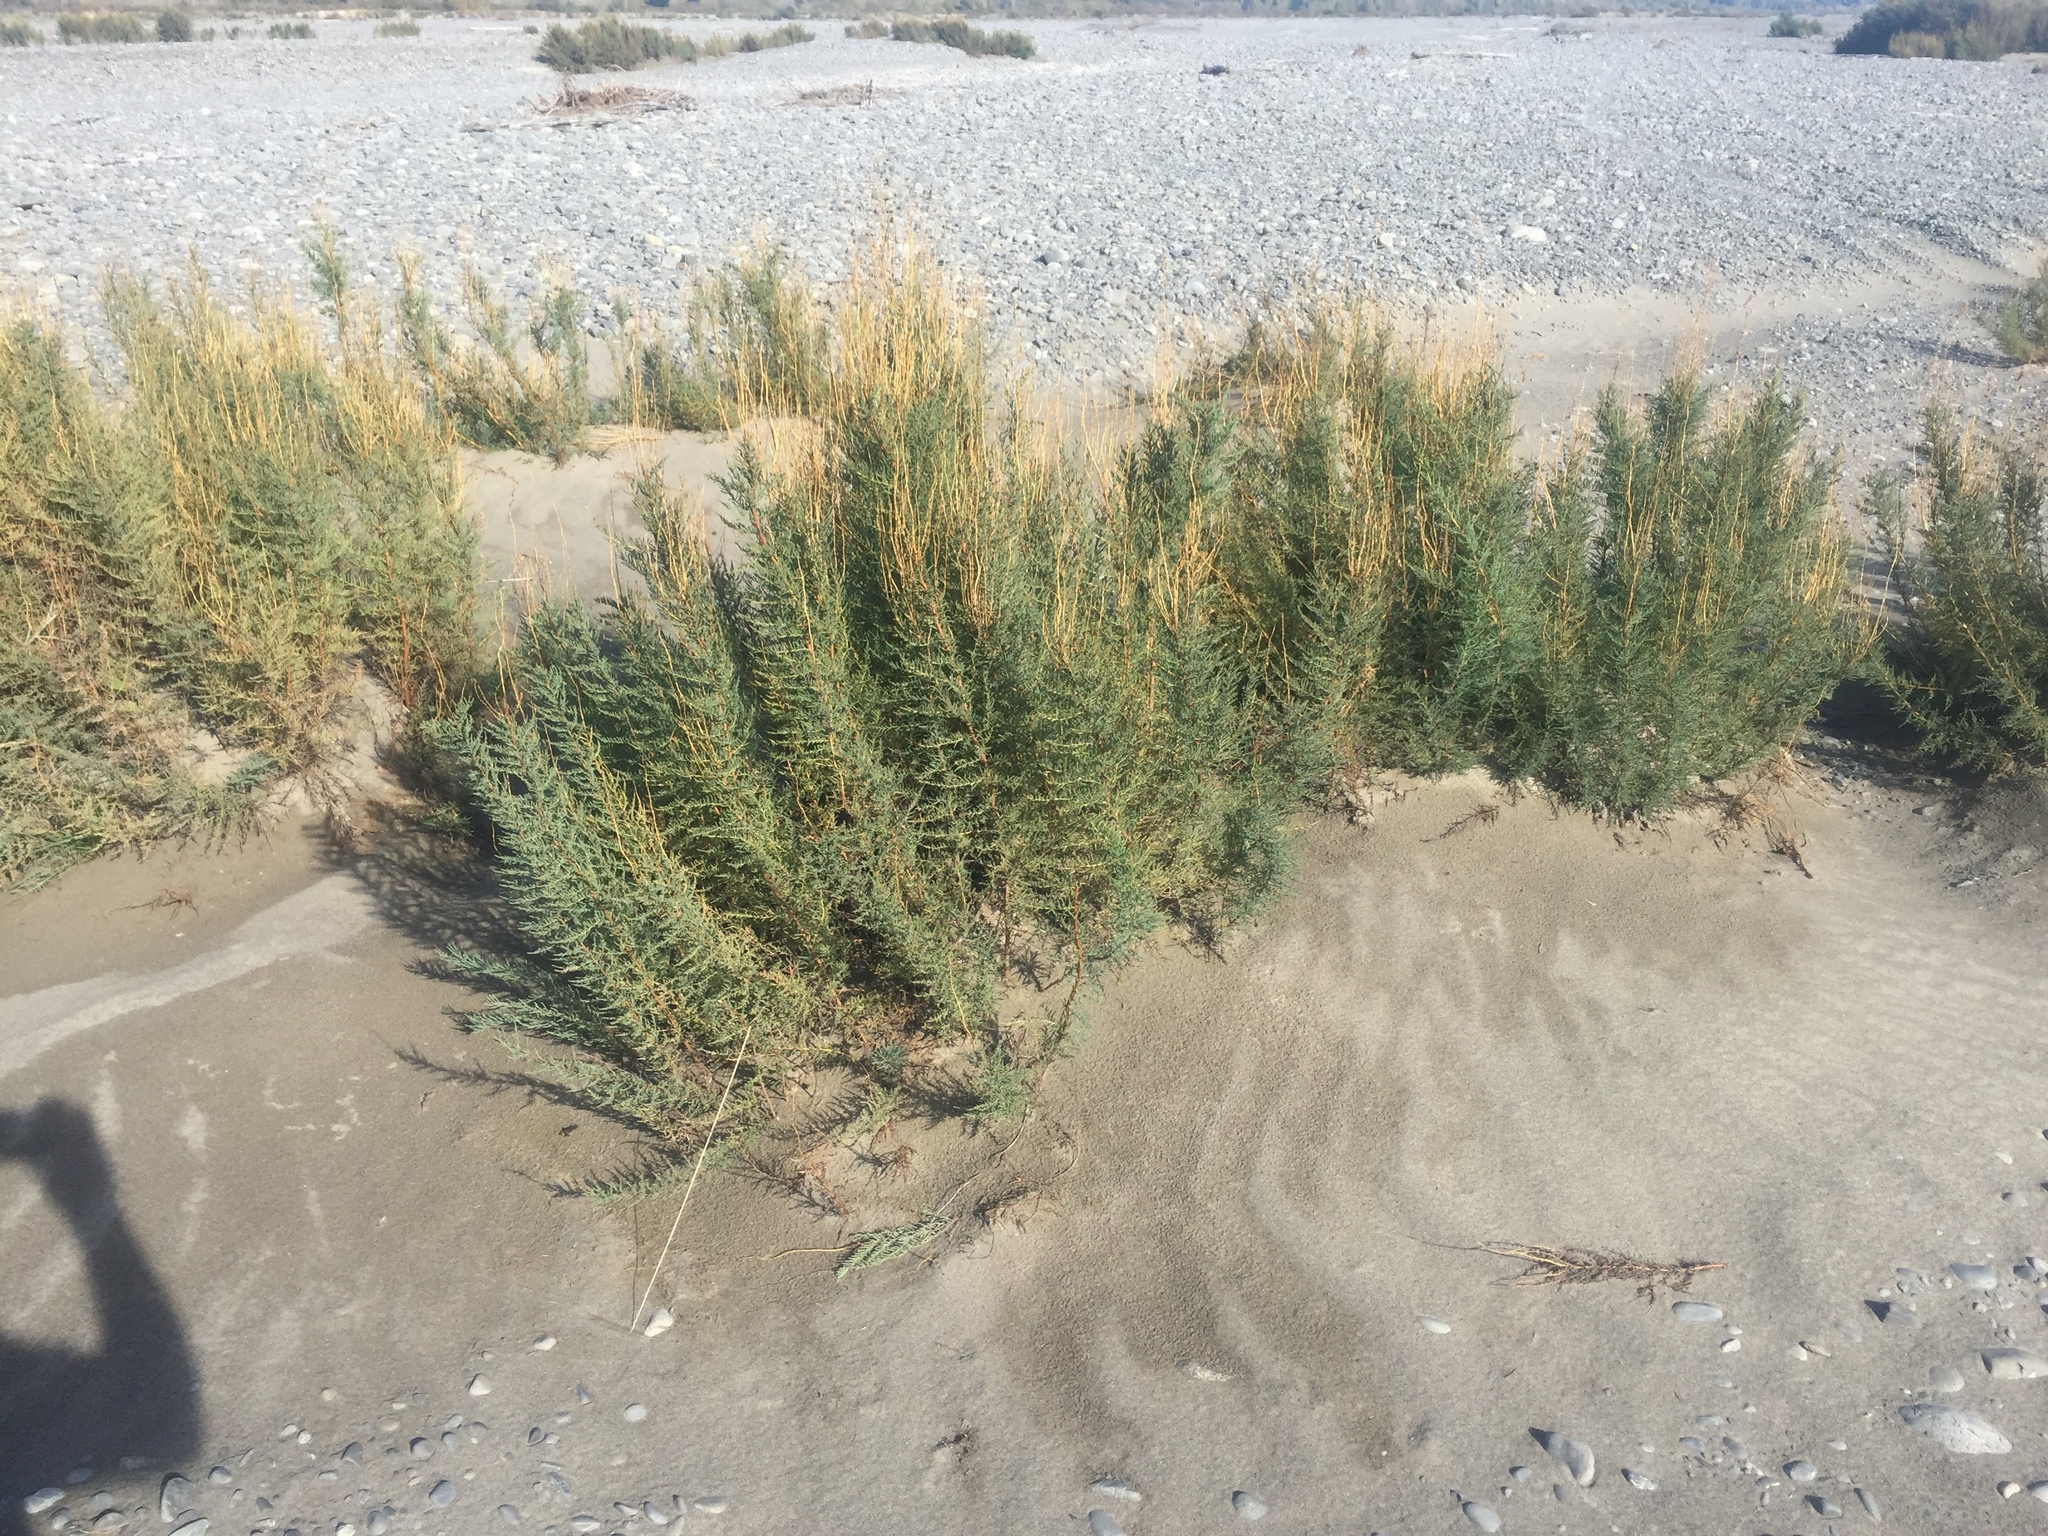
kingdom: Plantae
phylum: Tracheophyta
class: Magnoliopsida
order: Caryophyllales
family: Tamaricaceae
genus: Myricaria
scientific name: Myricaria germanica
